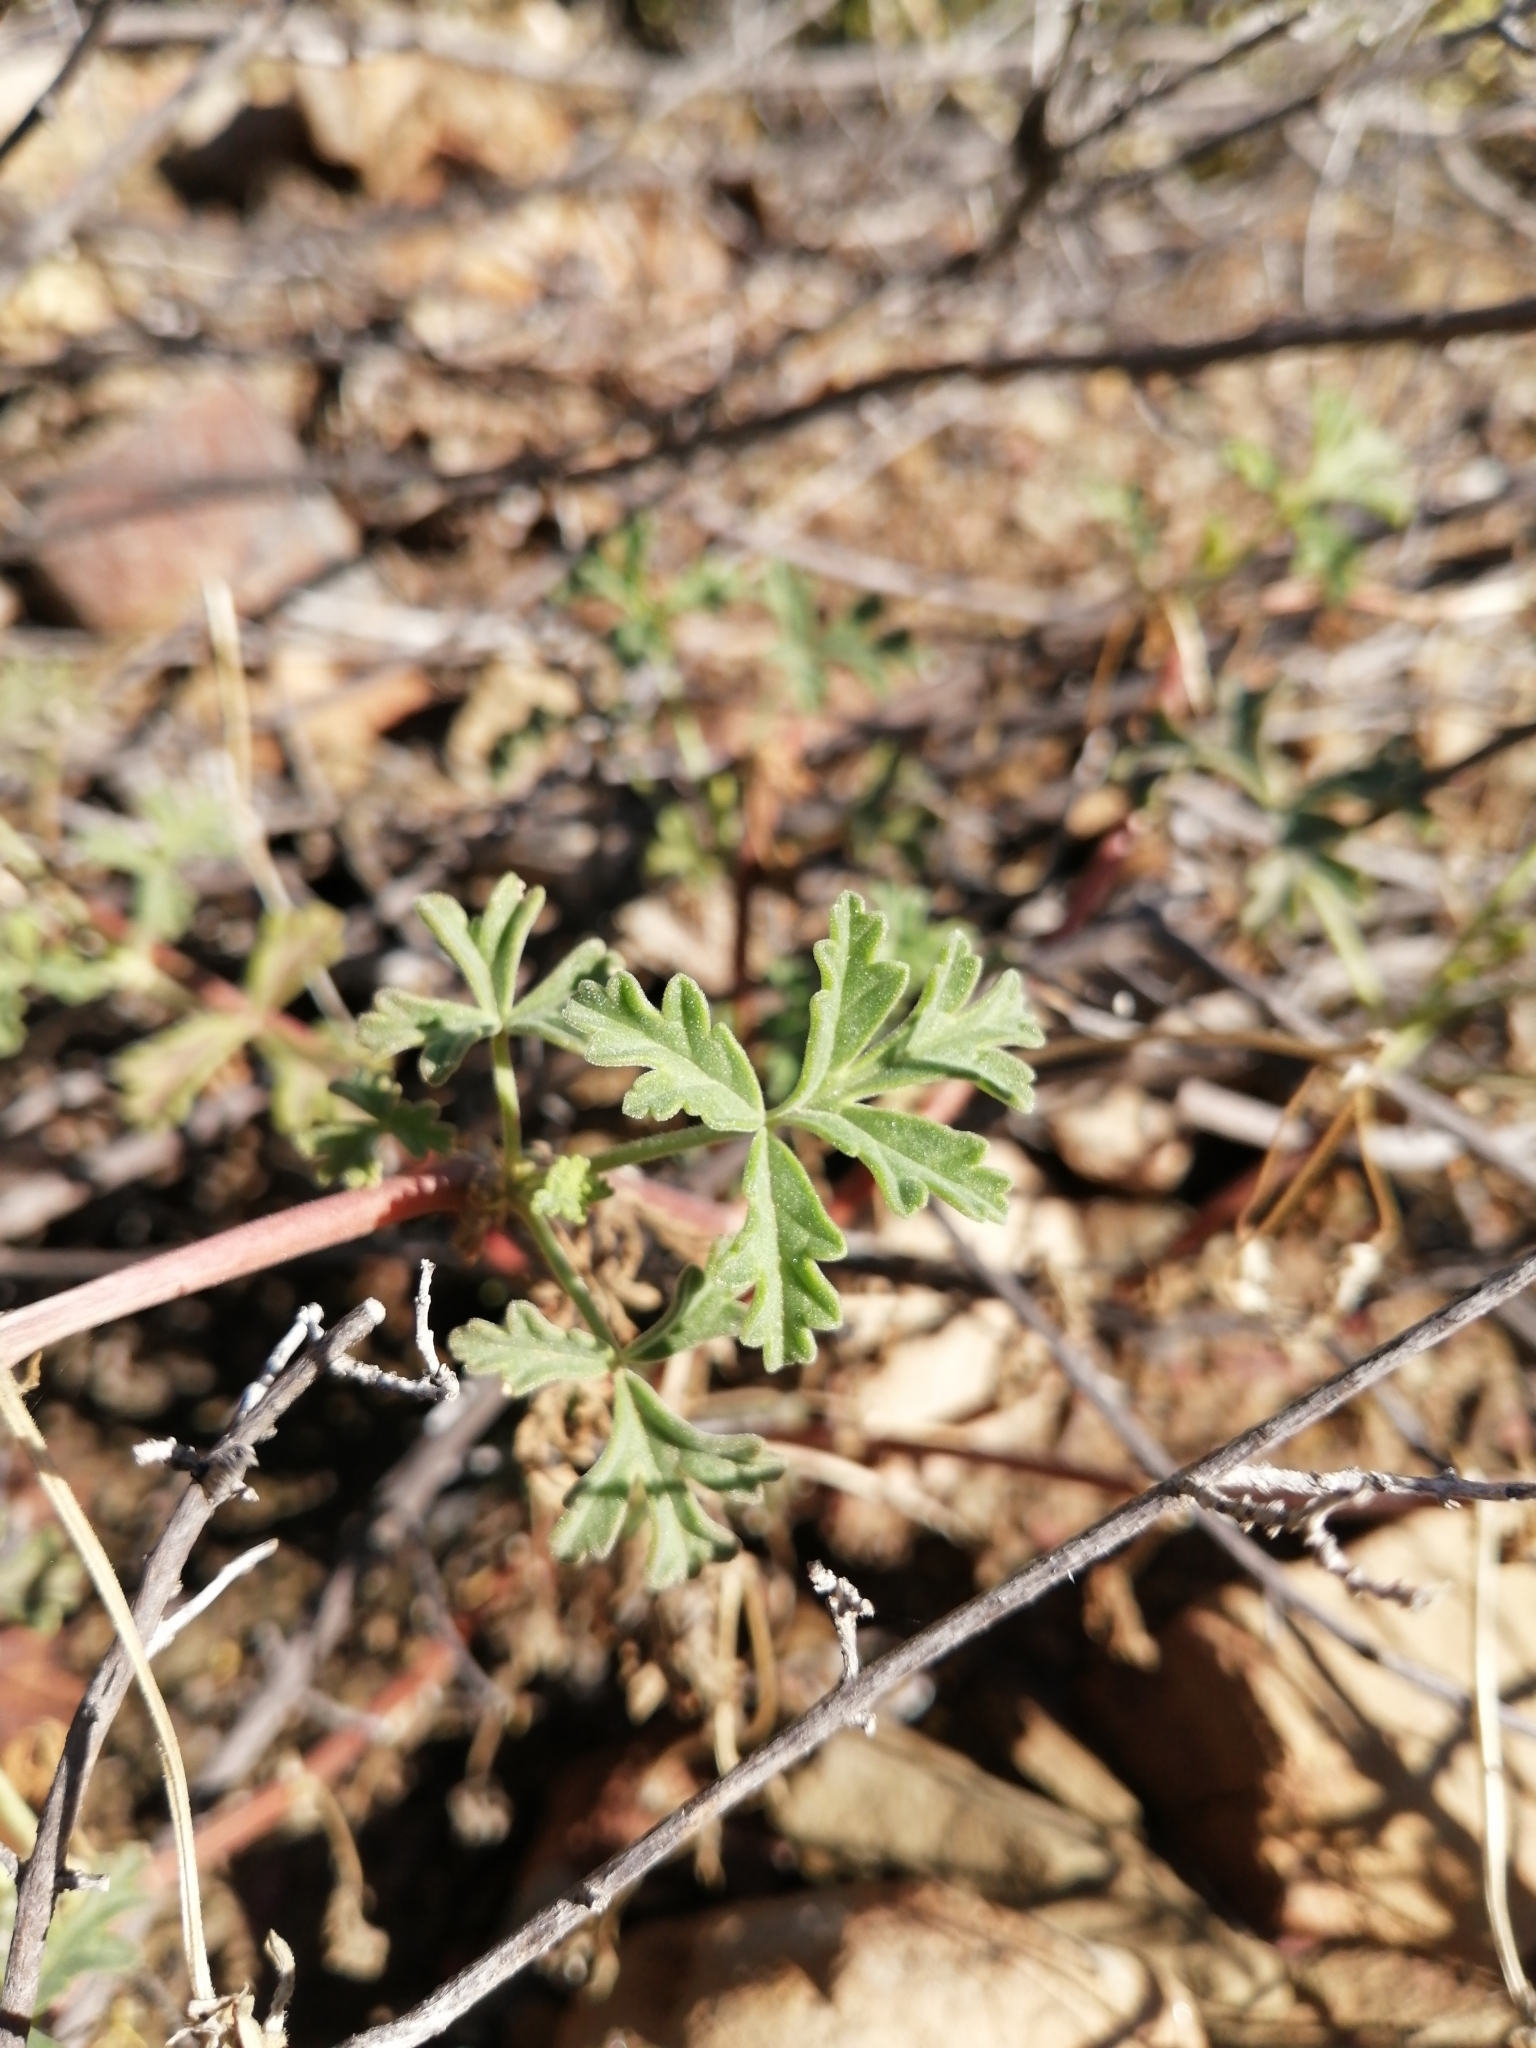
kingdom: Plantae
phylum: Tracheophyta
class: Magnoliopsida
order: Geraniales
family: Geraniaceae
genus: Pelargonium
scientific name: Pelargonium trifidum
